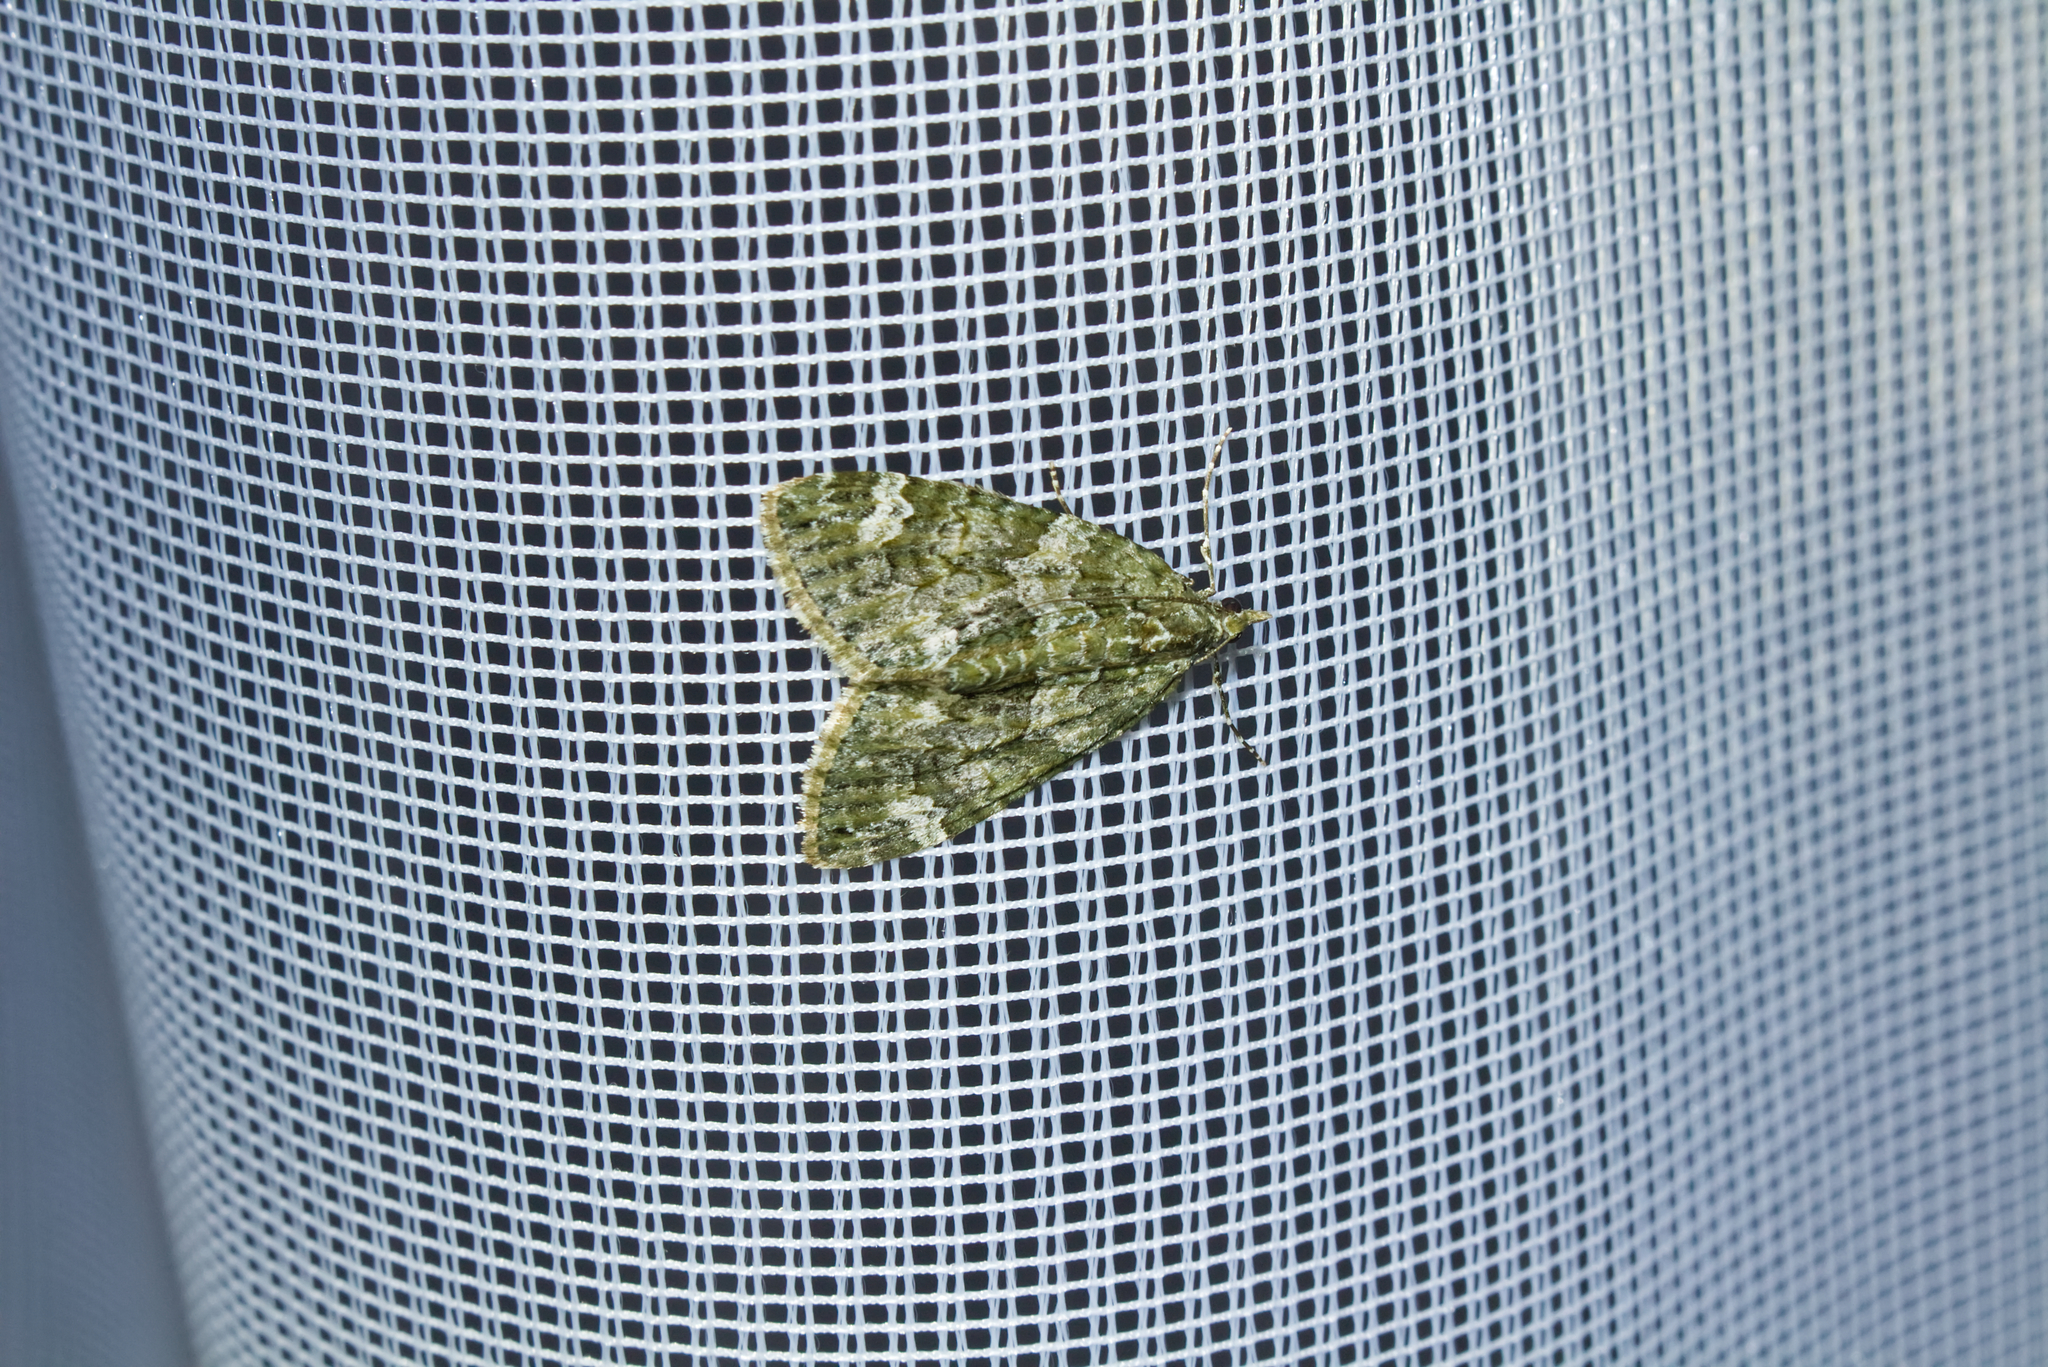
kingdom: Animalia
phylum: Arthropoda
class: Insecta
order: Lepidoptera
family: Geometridae
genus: Chloroclysta
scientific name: Chloroclysta siterata
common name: Red-green carpet
